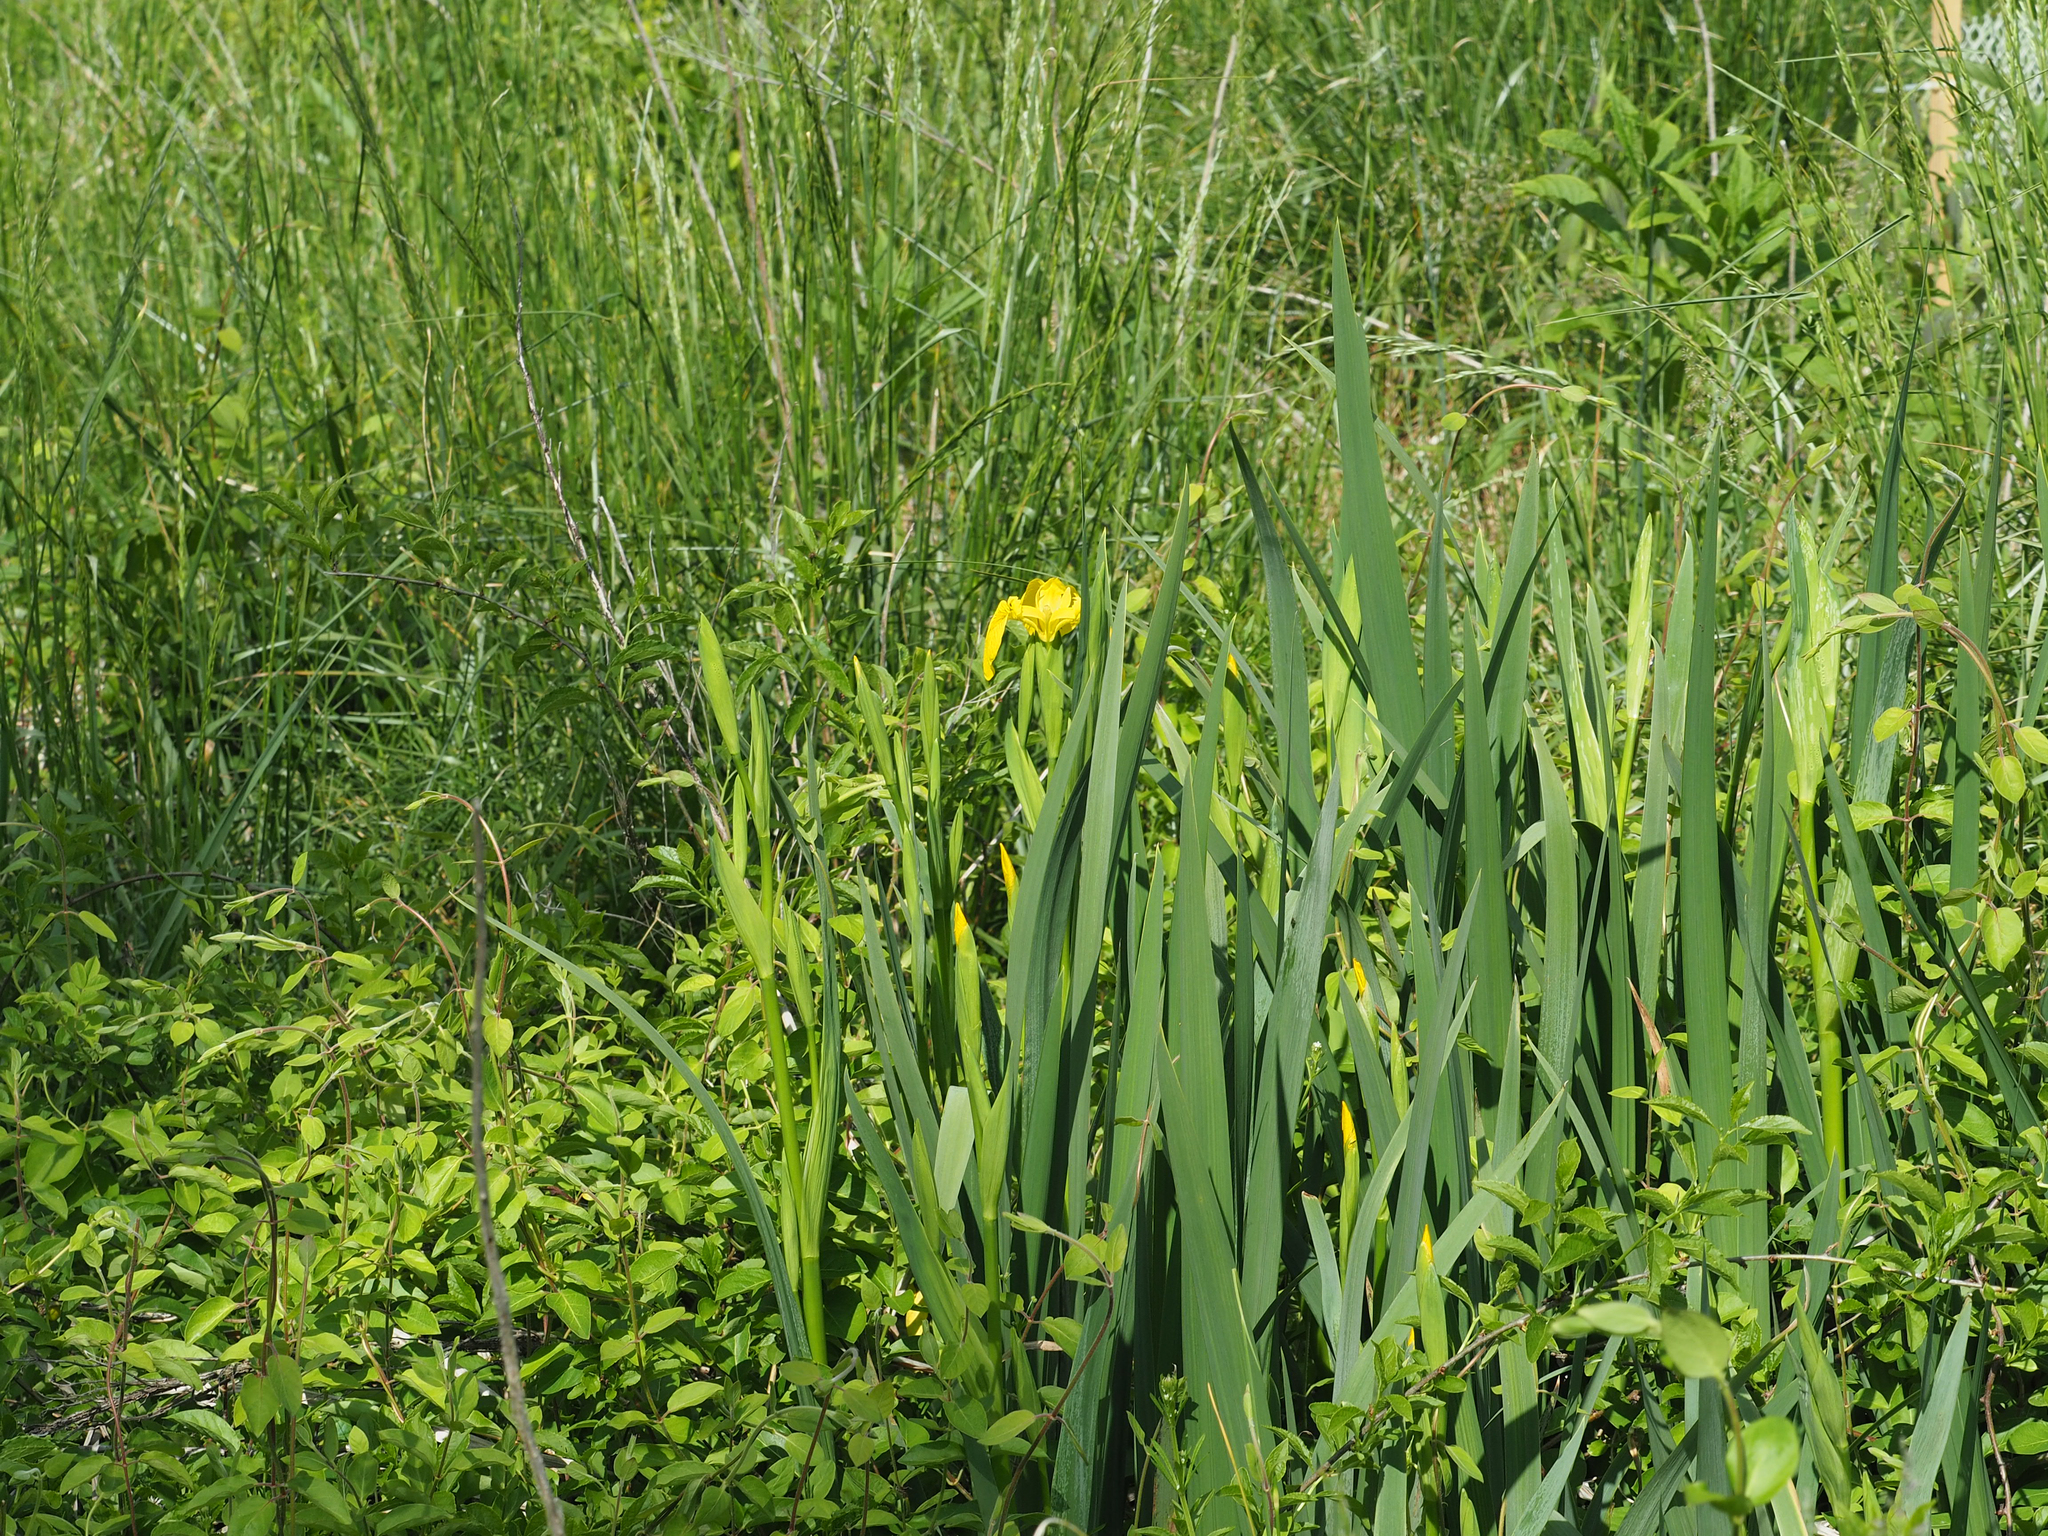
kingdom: Plantae
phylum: Tracheophyta
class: Liliopsida
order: Asparagales
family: Iridaceae
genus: Iris
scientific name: Iris pseudacorus
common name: Yellow flag
